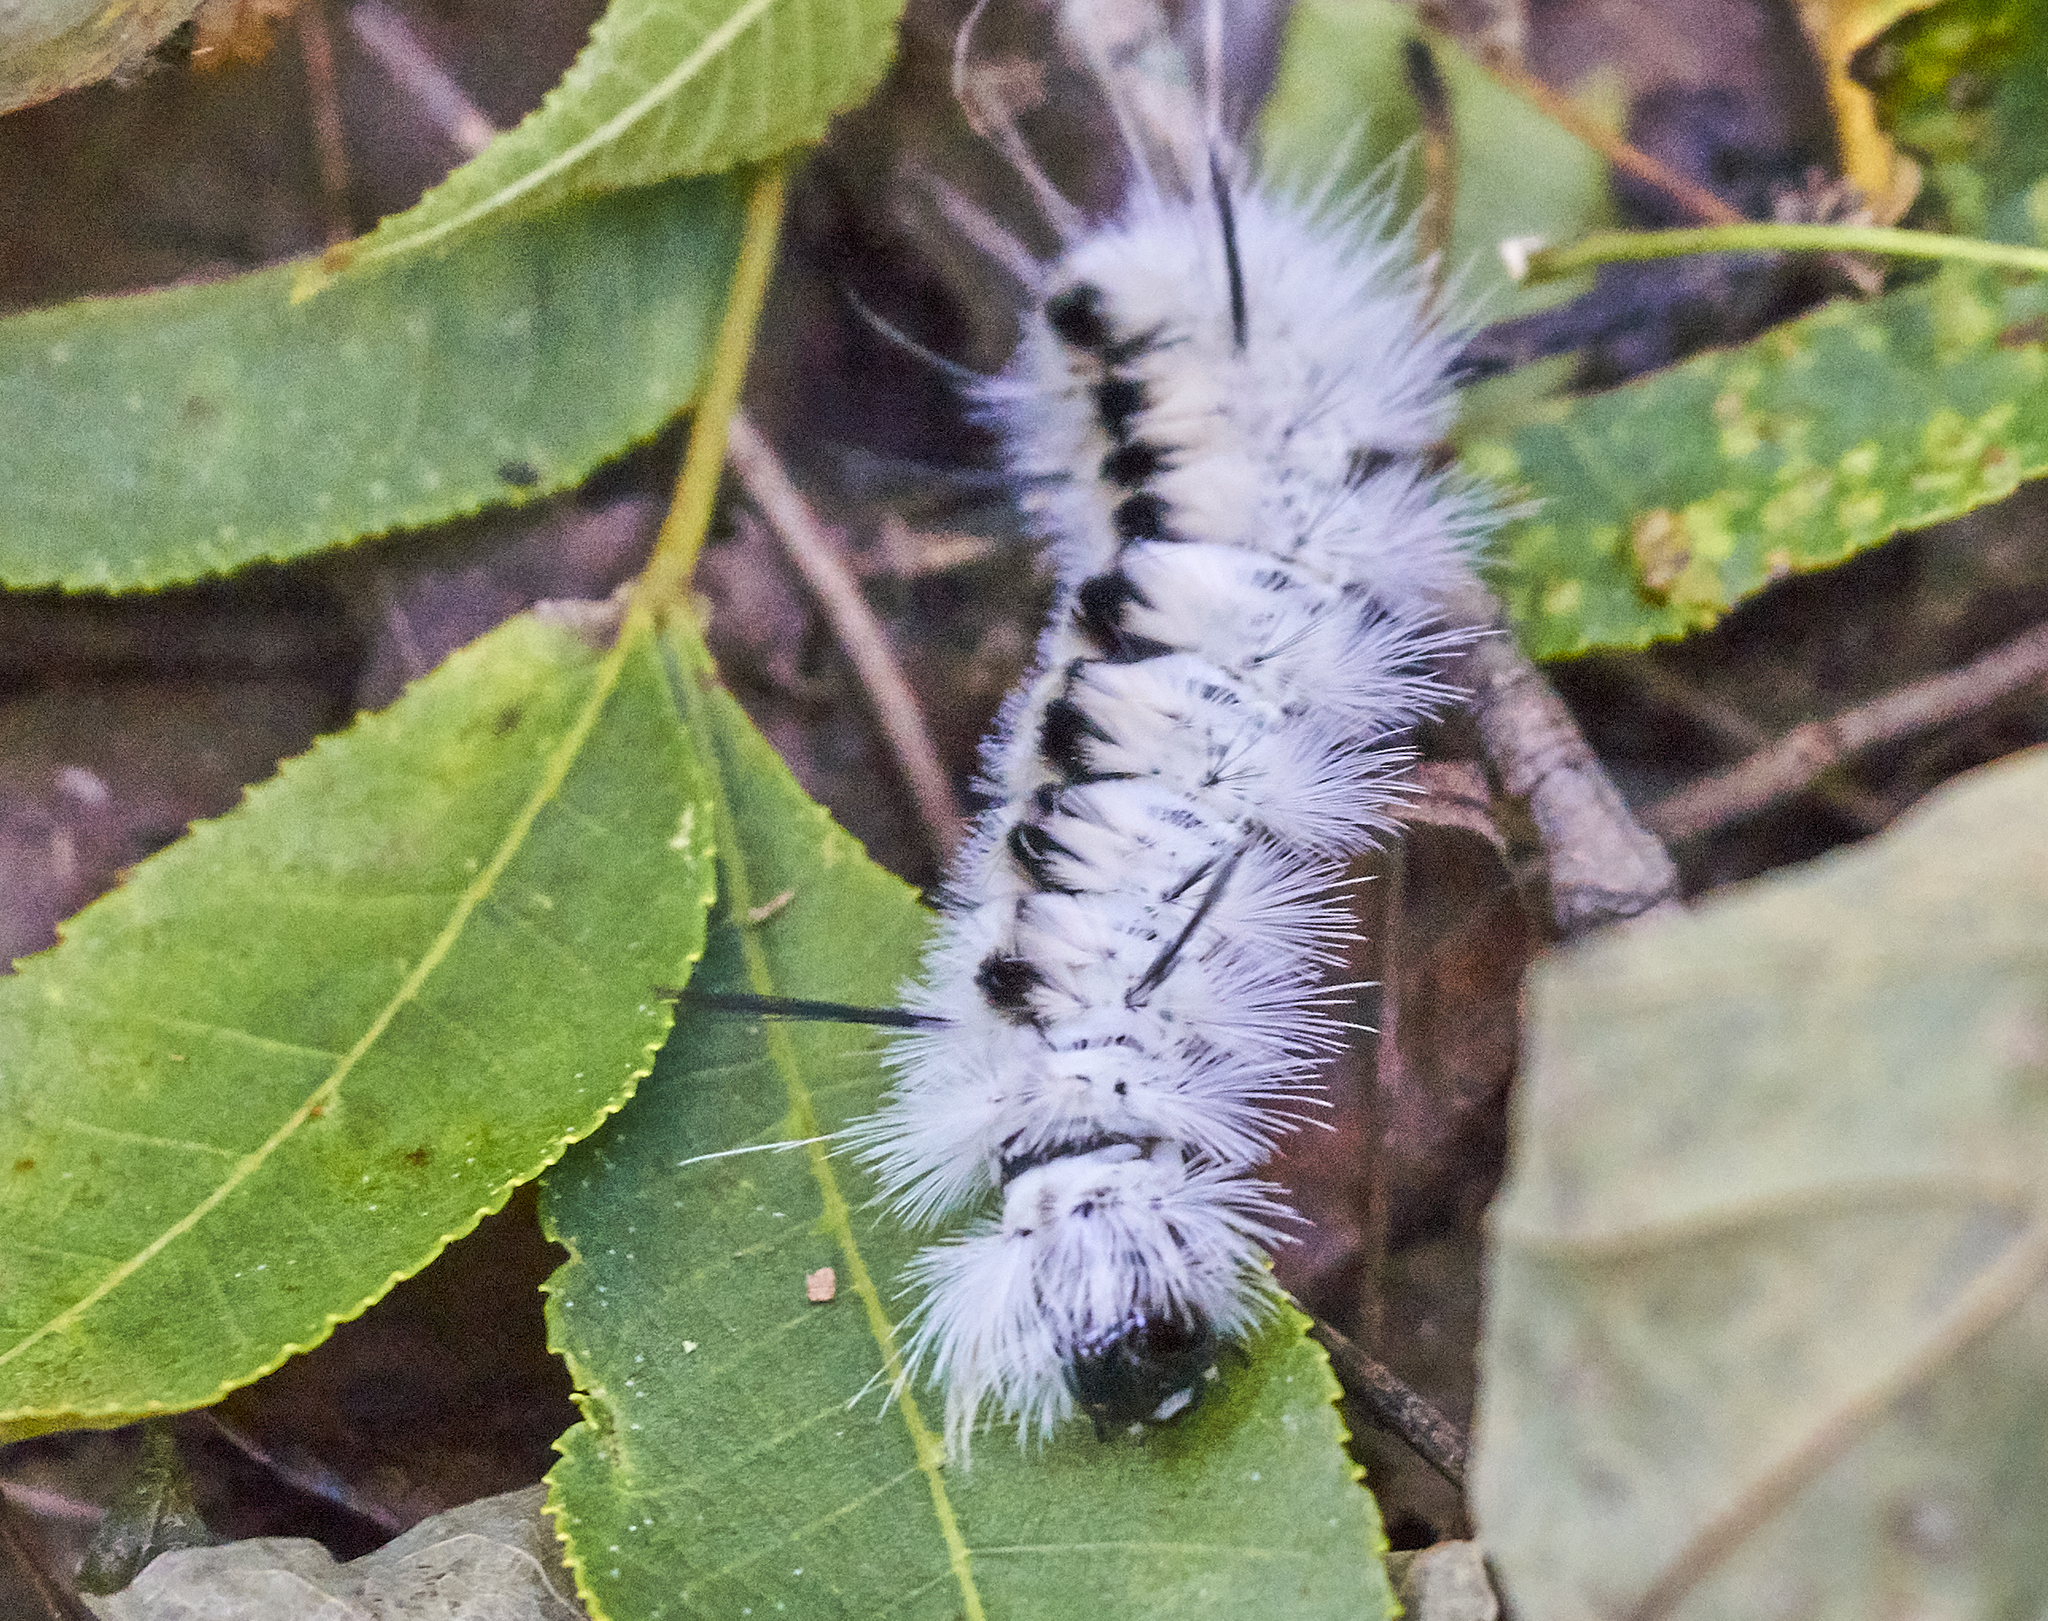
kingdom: Animalia
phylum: Arthropoda
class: Insecta
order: Lepidoptera
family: Erebidae
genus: Lophocampa
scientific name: Lophocampa caryae
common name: Hickory tussock moth
